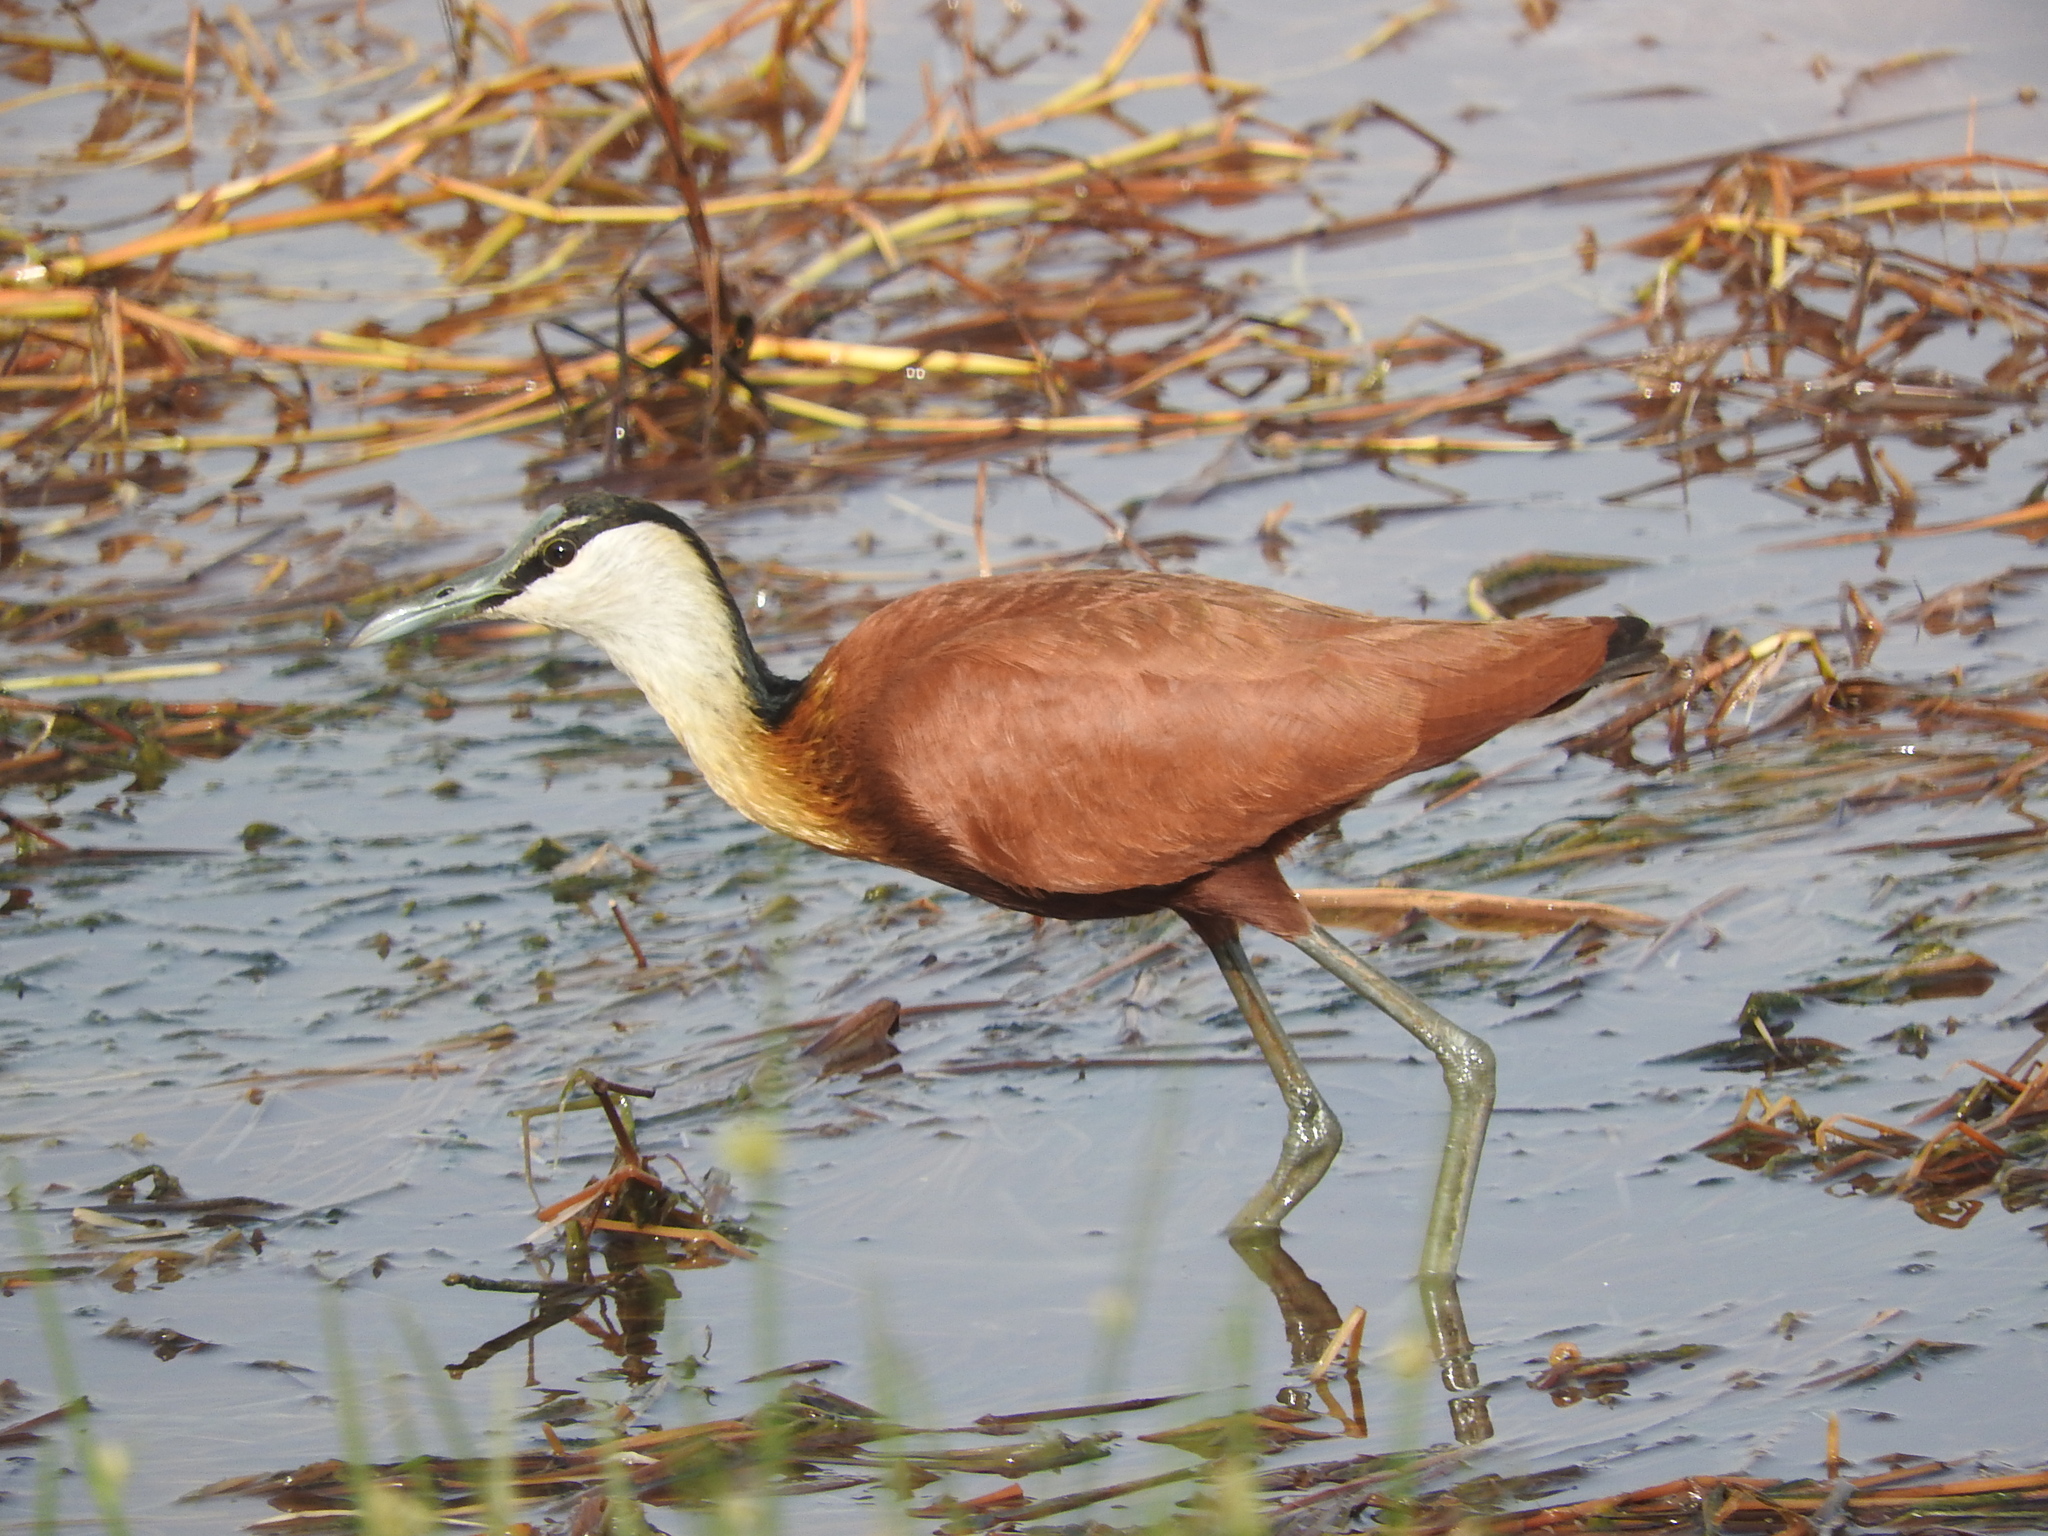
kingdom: Animalia
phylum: Chordata
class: Aves
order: Charadriiformes
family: Jacanidae
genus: Actophilornis
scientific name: Actophilornis africanus
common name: African jacana
